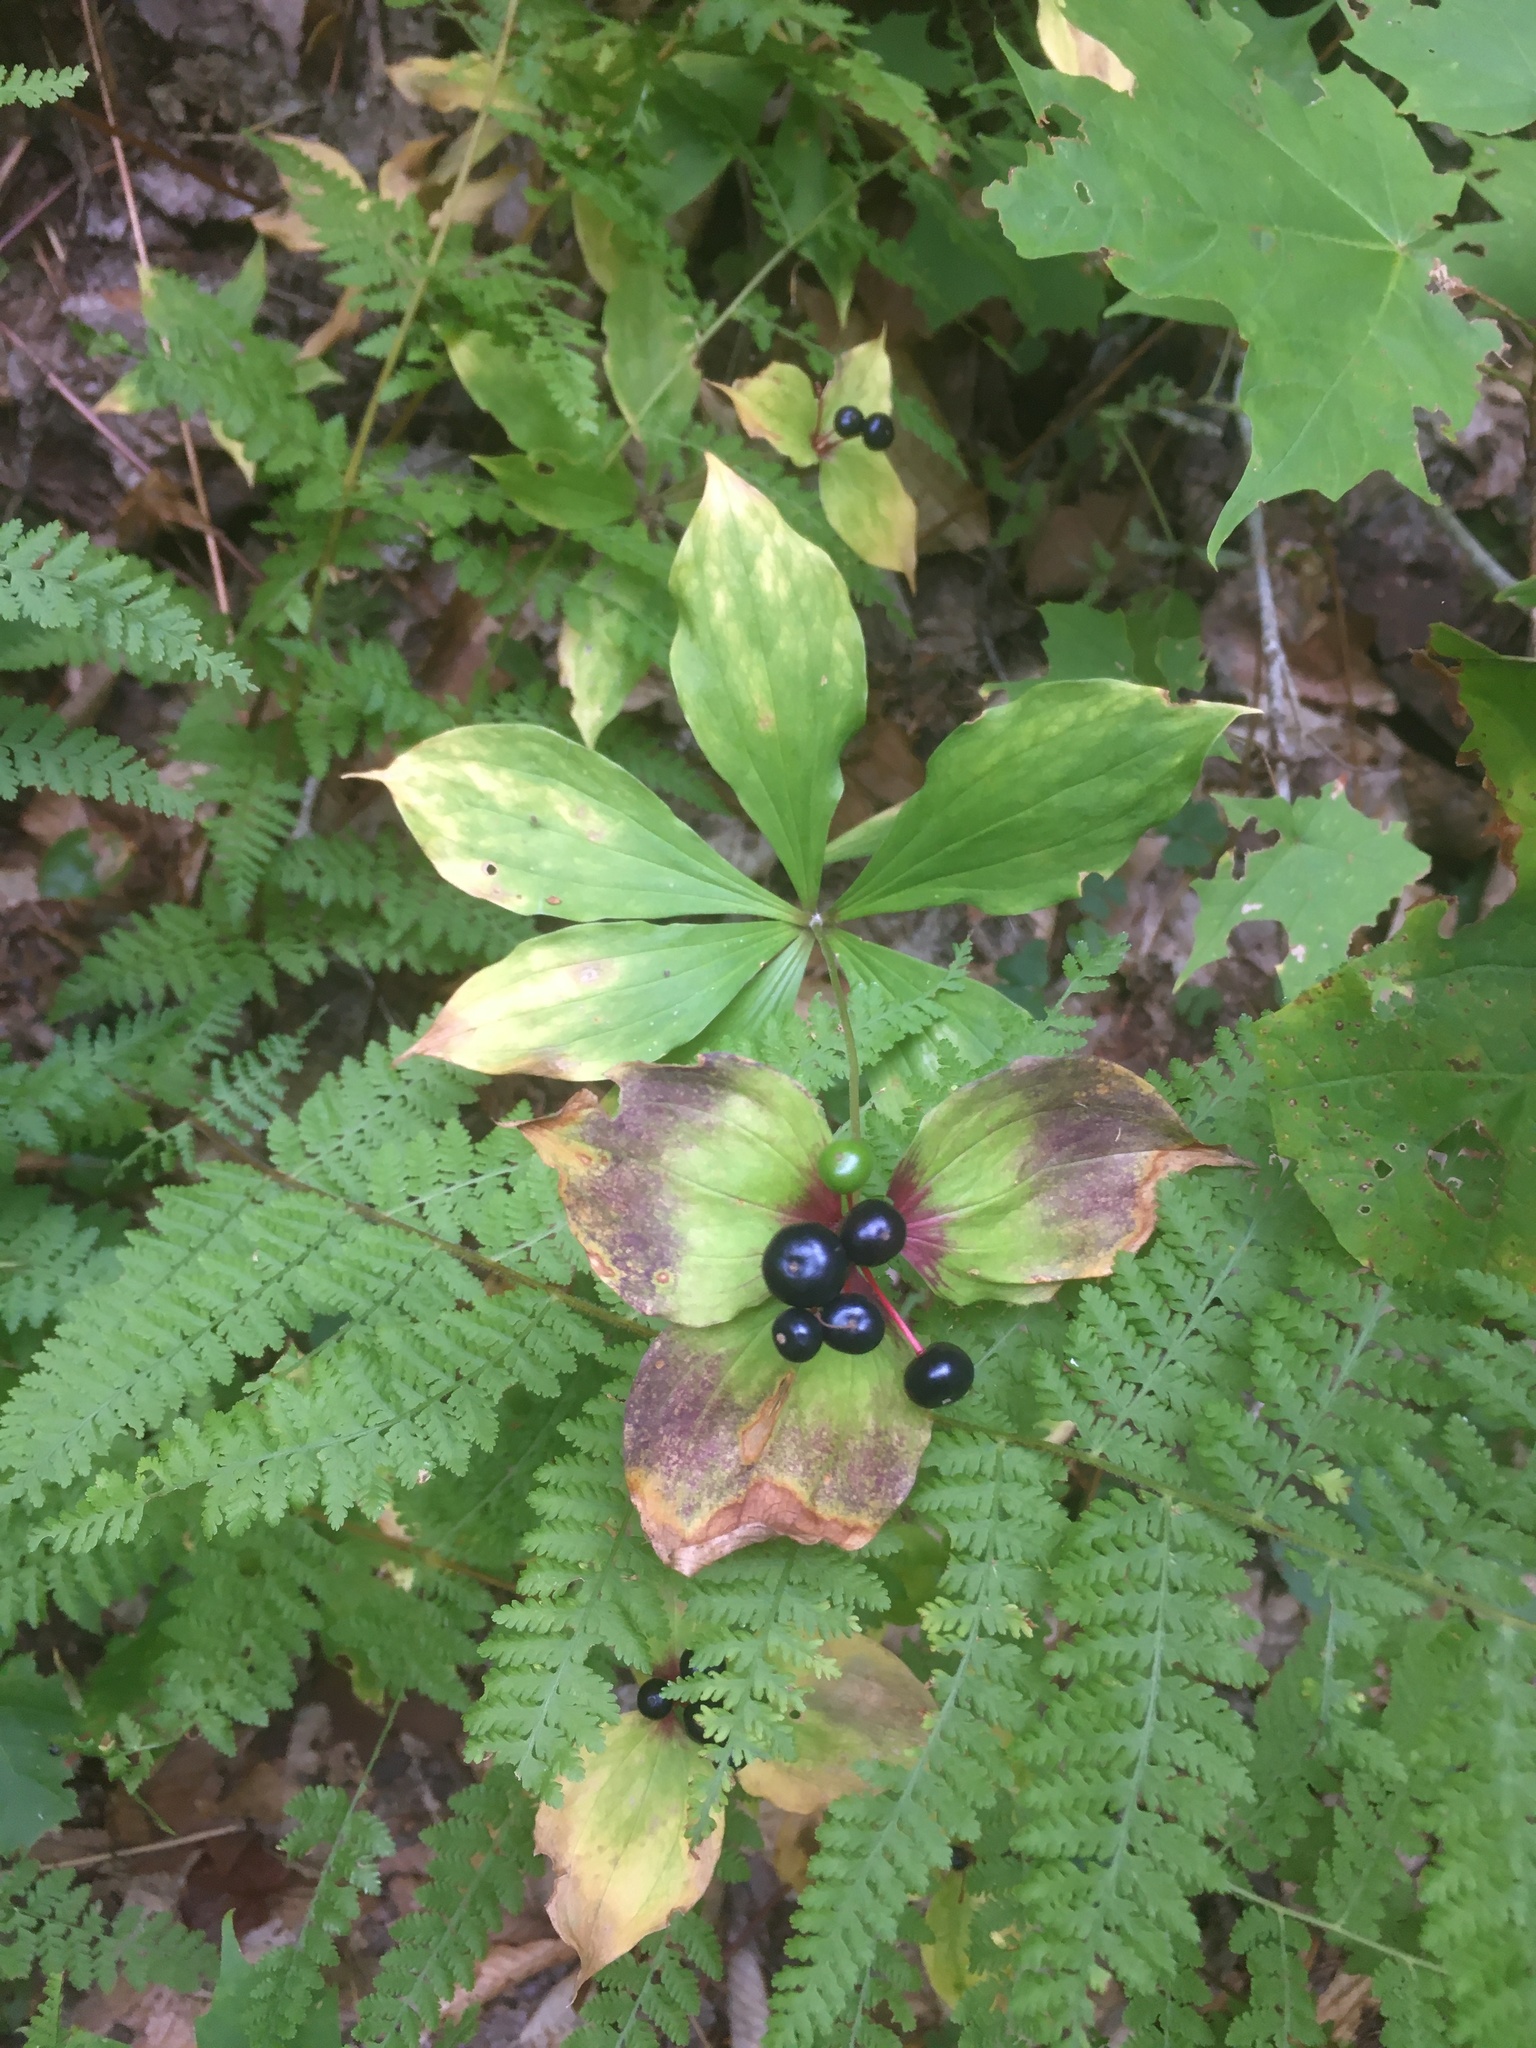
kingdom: Plantae
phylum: Tracheophyta
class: Liliopsida
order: Liliales
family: Liliaceae
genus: Medeola
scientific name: Medeola virginiana
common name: Indian cucumber-root
